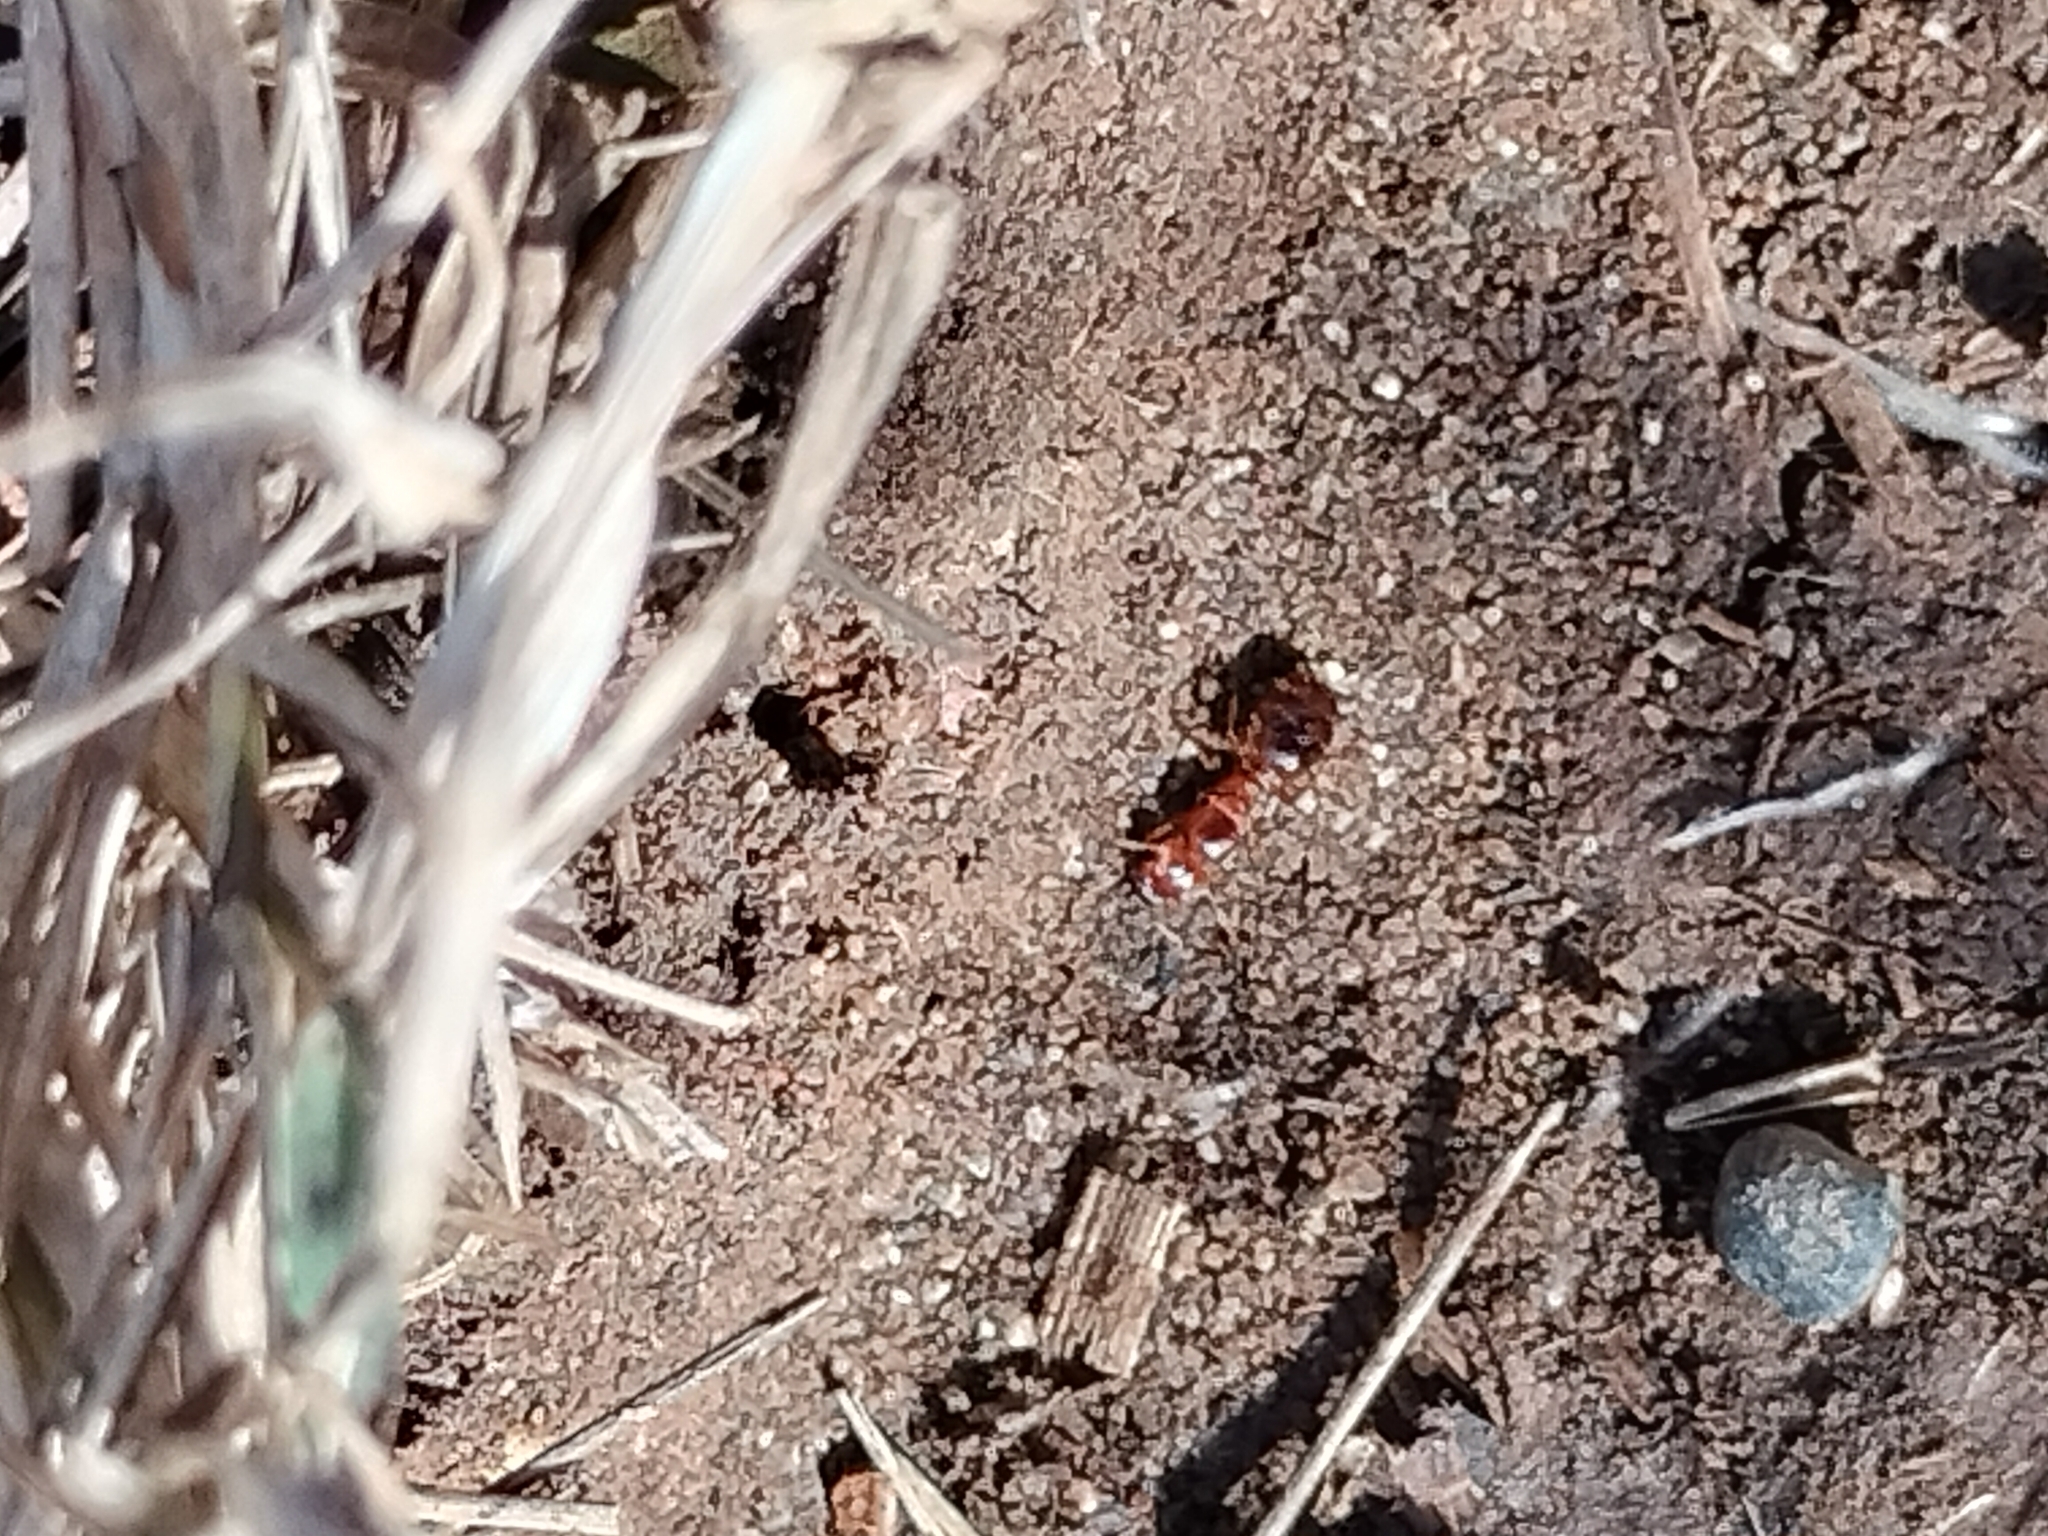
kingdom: Animalia
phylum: Arthropoda
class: Insecta
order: Hymenoptera
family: Formicidae
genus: Pheidole
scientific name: Pheidole pallidula
